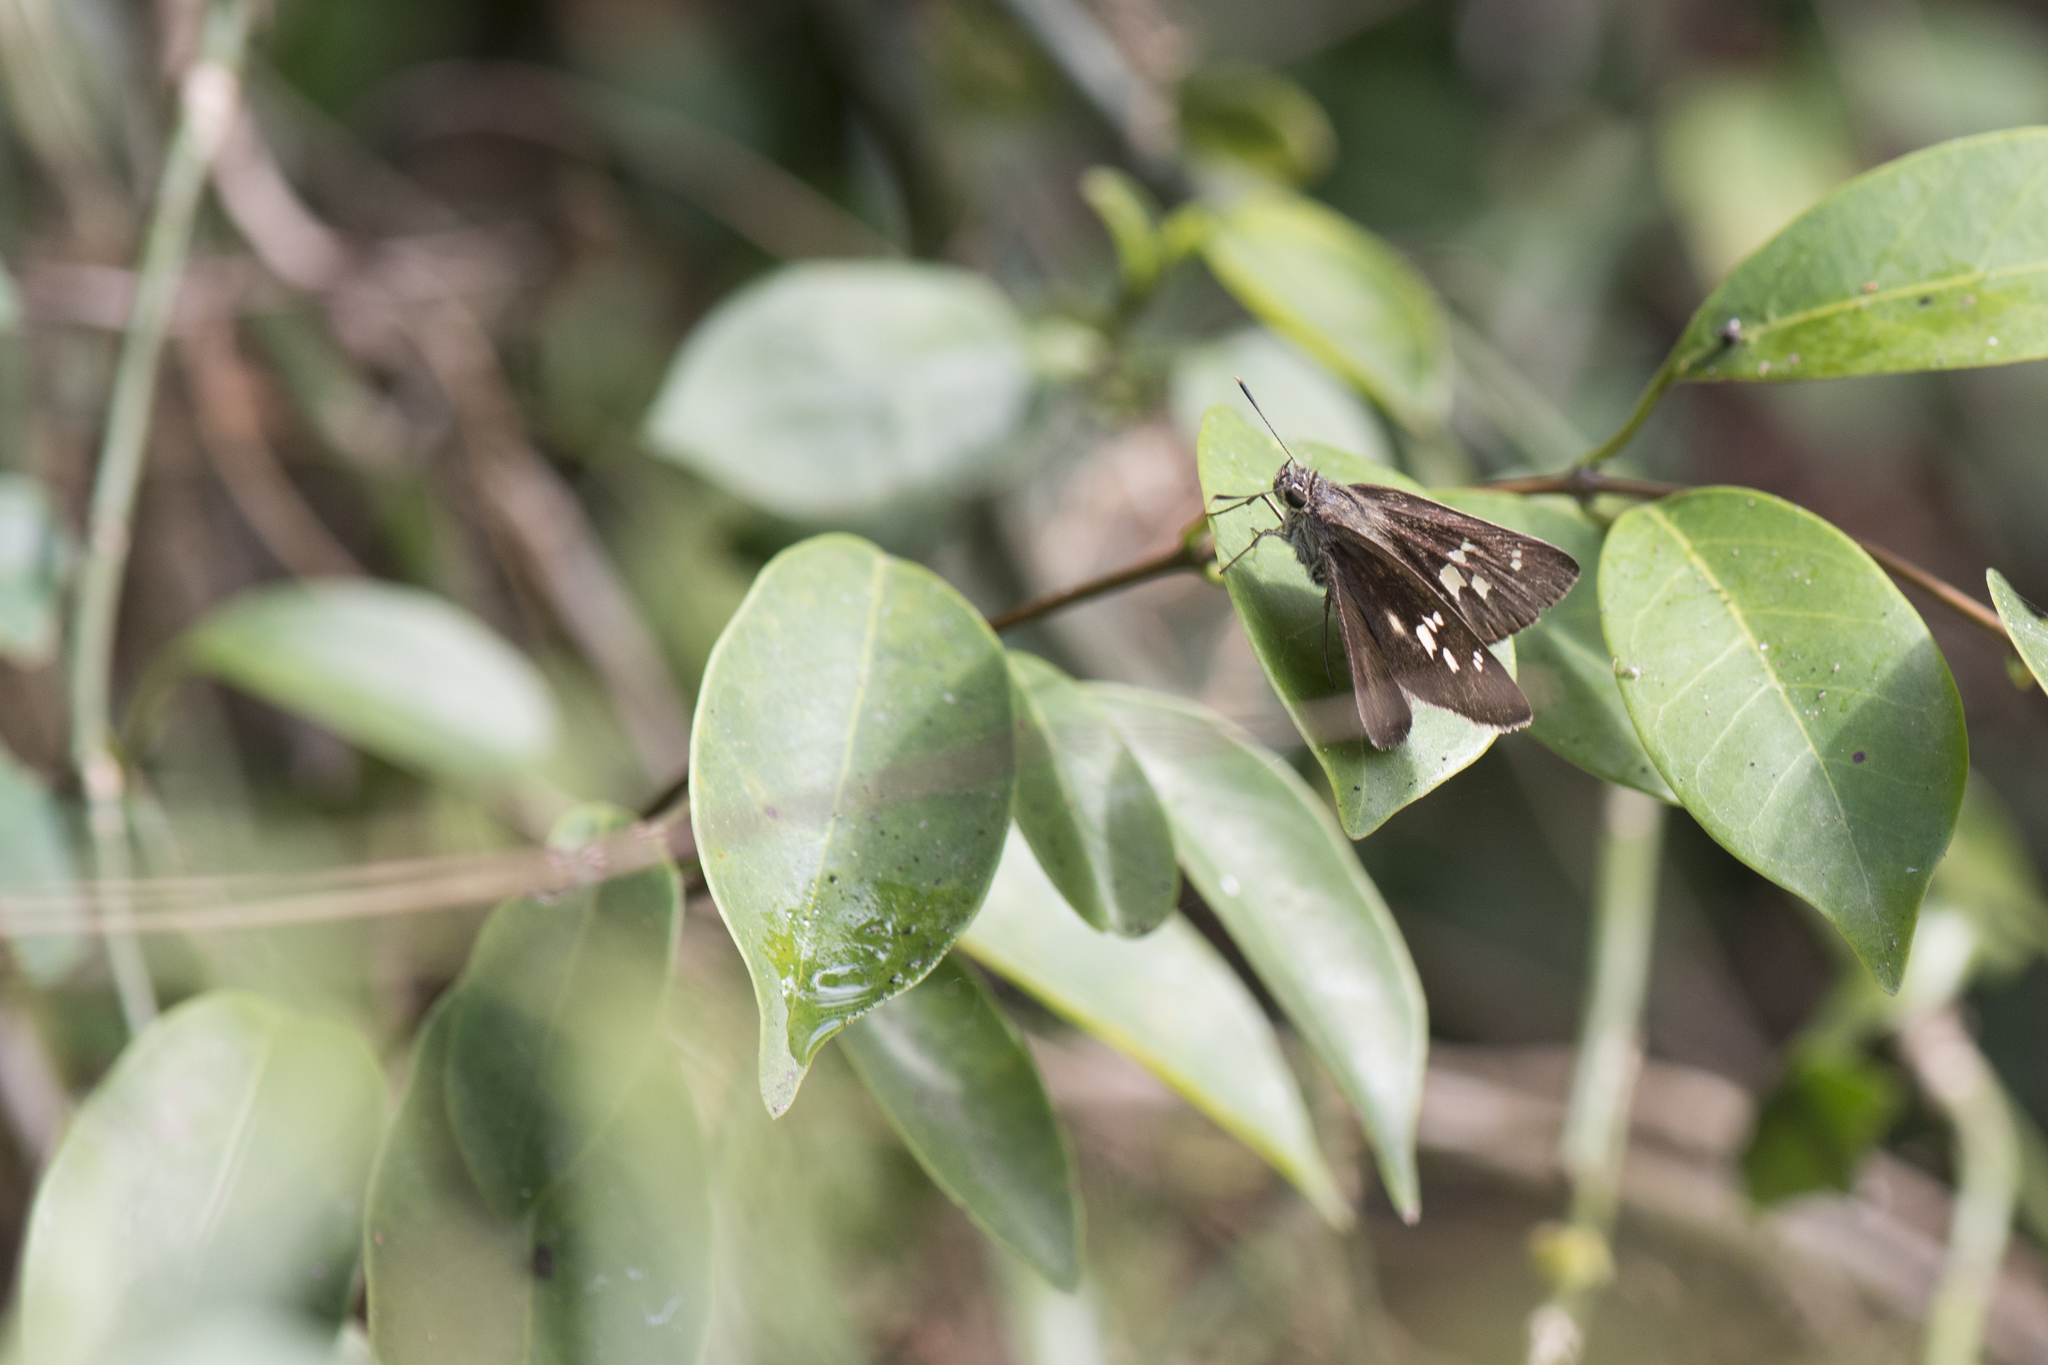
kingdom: Animalia
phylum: Arthropoda
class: Insecta
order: Lepidoptera
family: Hesperiidae
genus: Suastus
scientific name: Suastus gremius
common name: Indian palm bob
